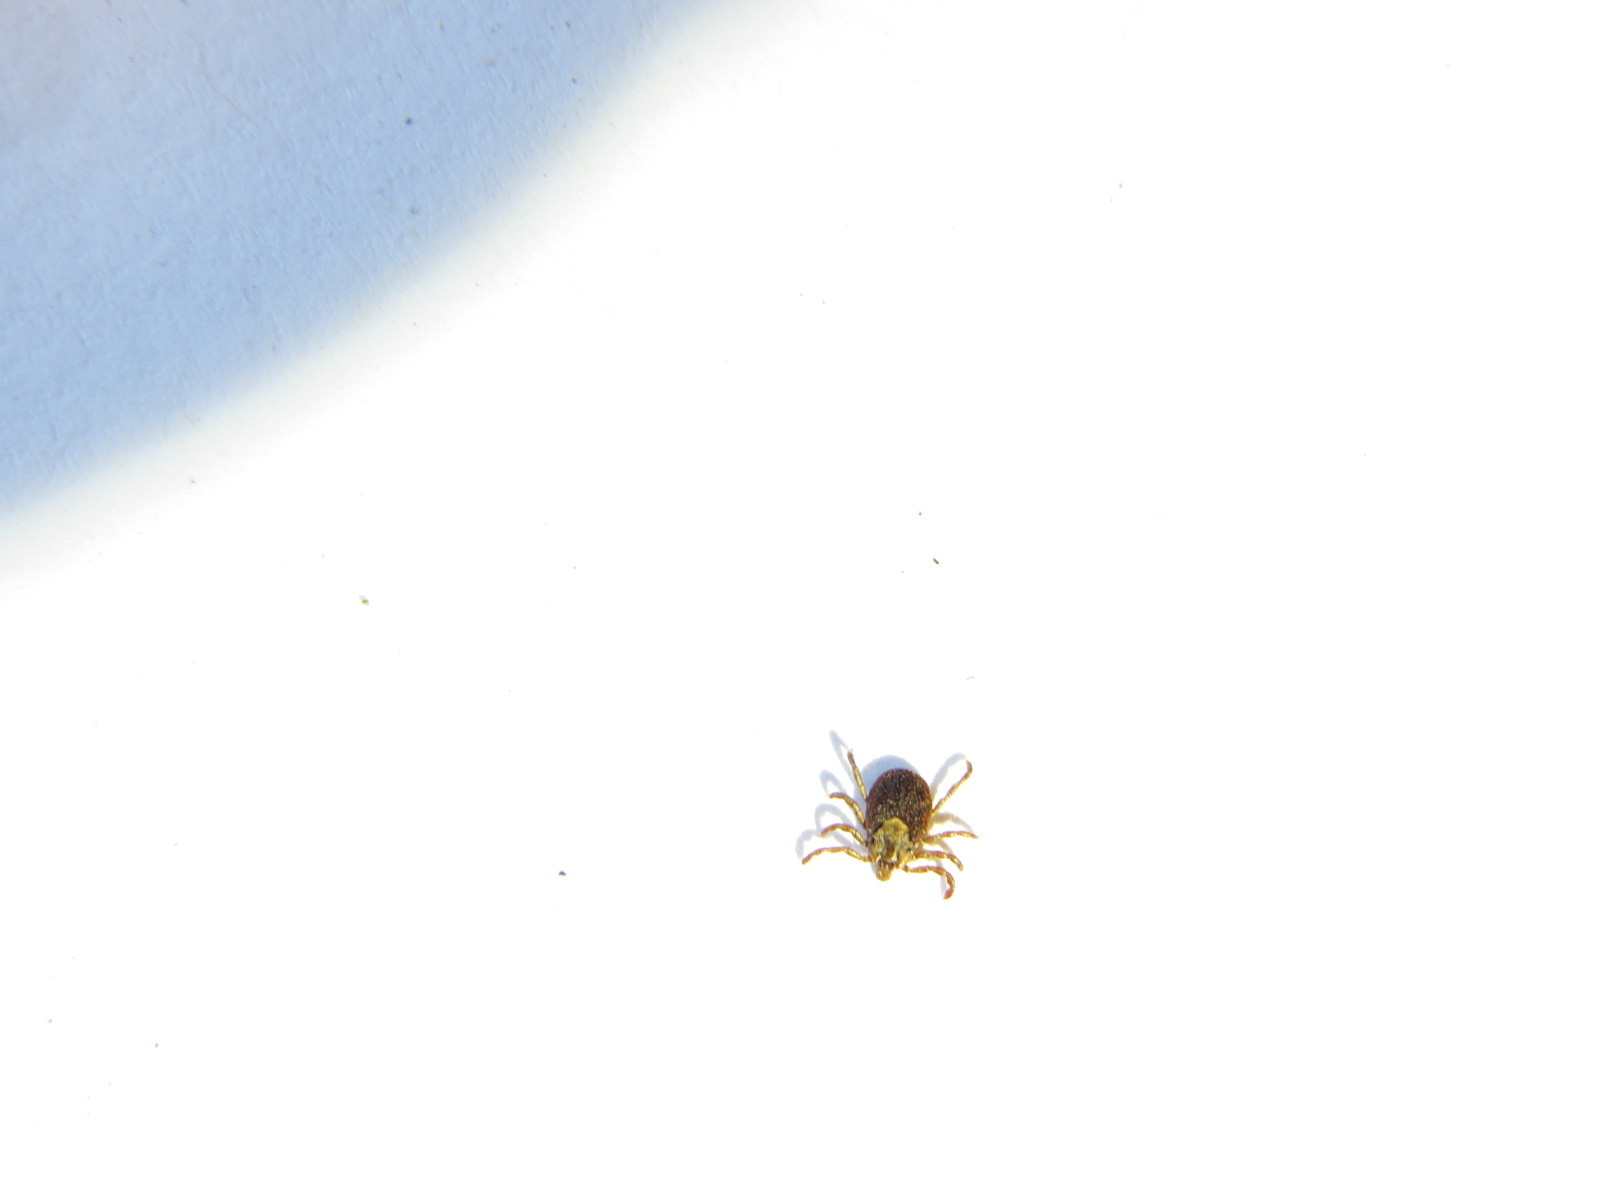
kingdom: Animalia
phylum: Arthropoda
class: Arachnida
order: Ixodida
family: Ixodidae
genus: Dermacentor
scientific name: Dermacentor occidentalis
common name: Net tick
